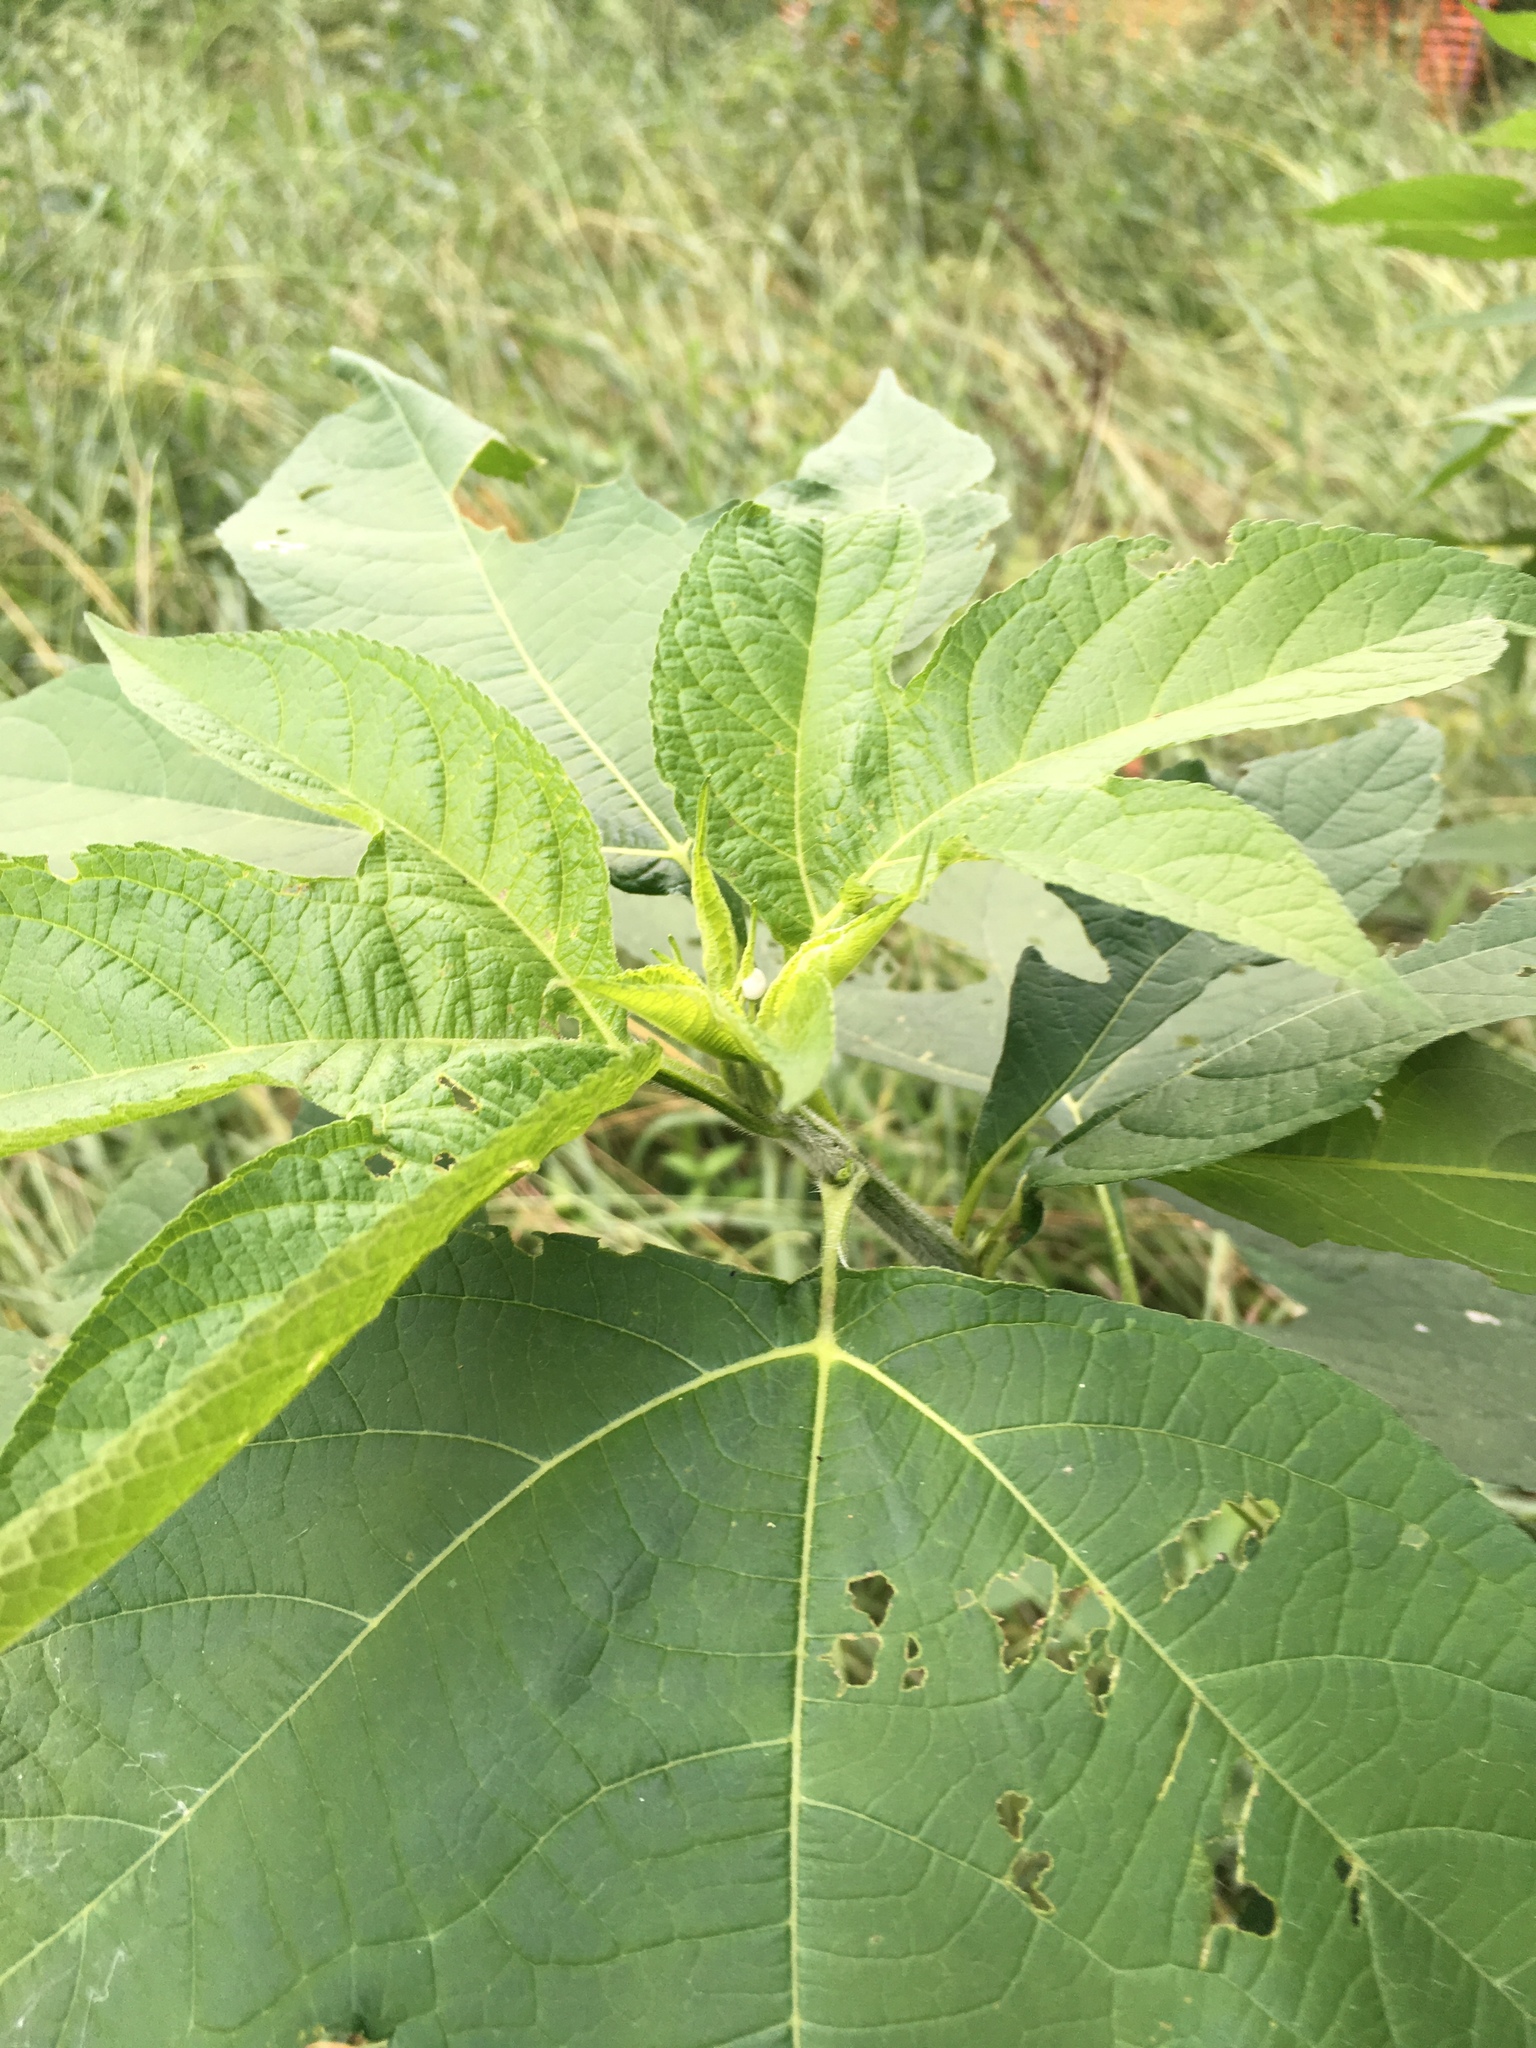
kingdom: Plantae
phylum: Tracheophyta
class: Magnoliopsida
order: Asterales
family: Asteraceae
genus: Ambrosia
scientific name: Ambrosia trifida
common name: Giant ragweed
